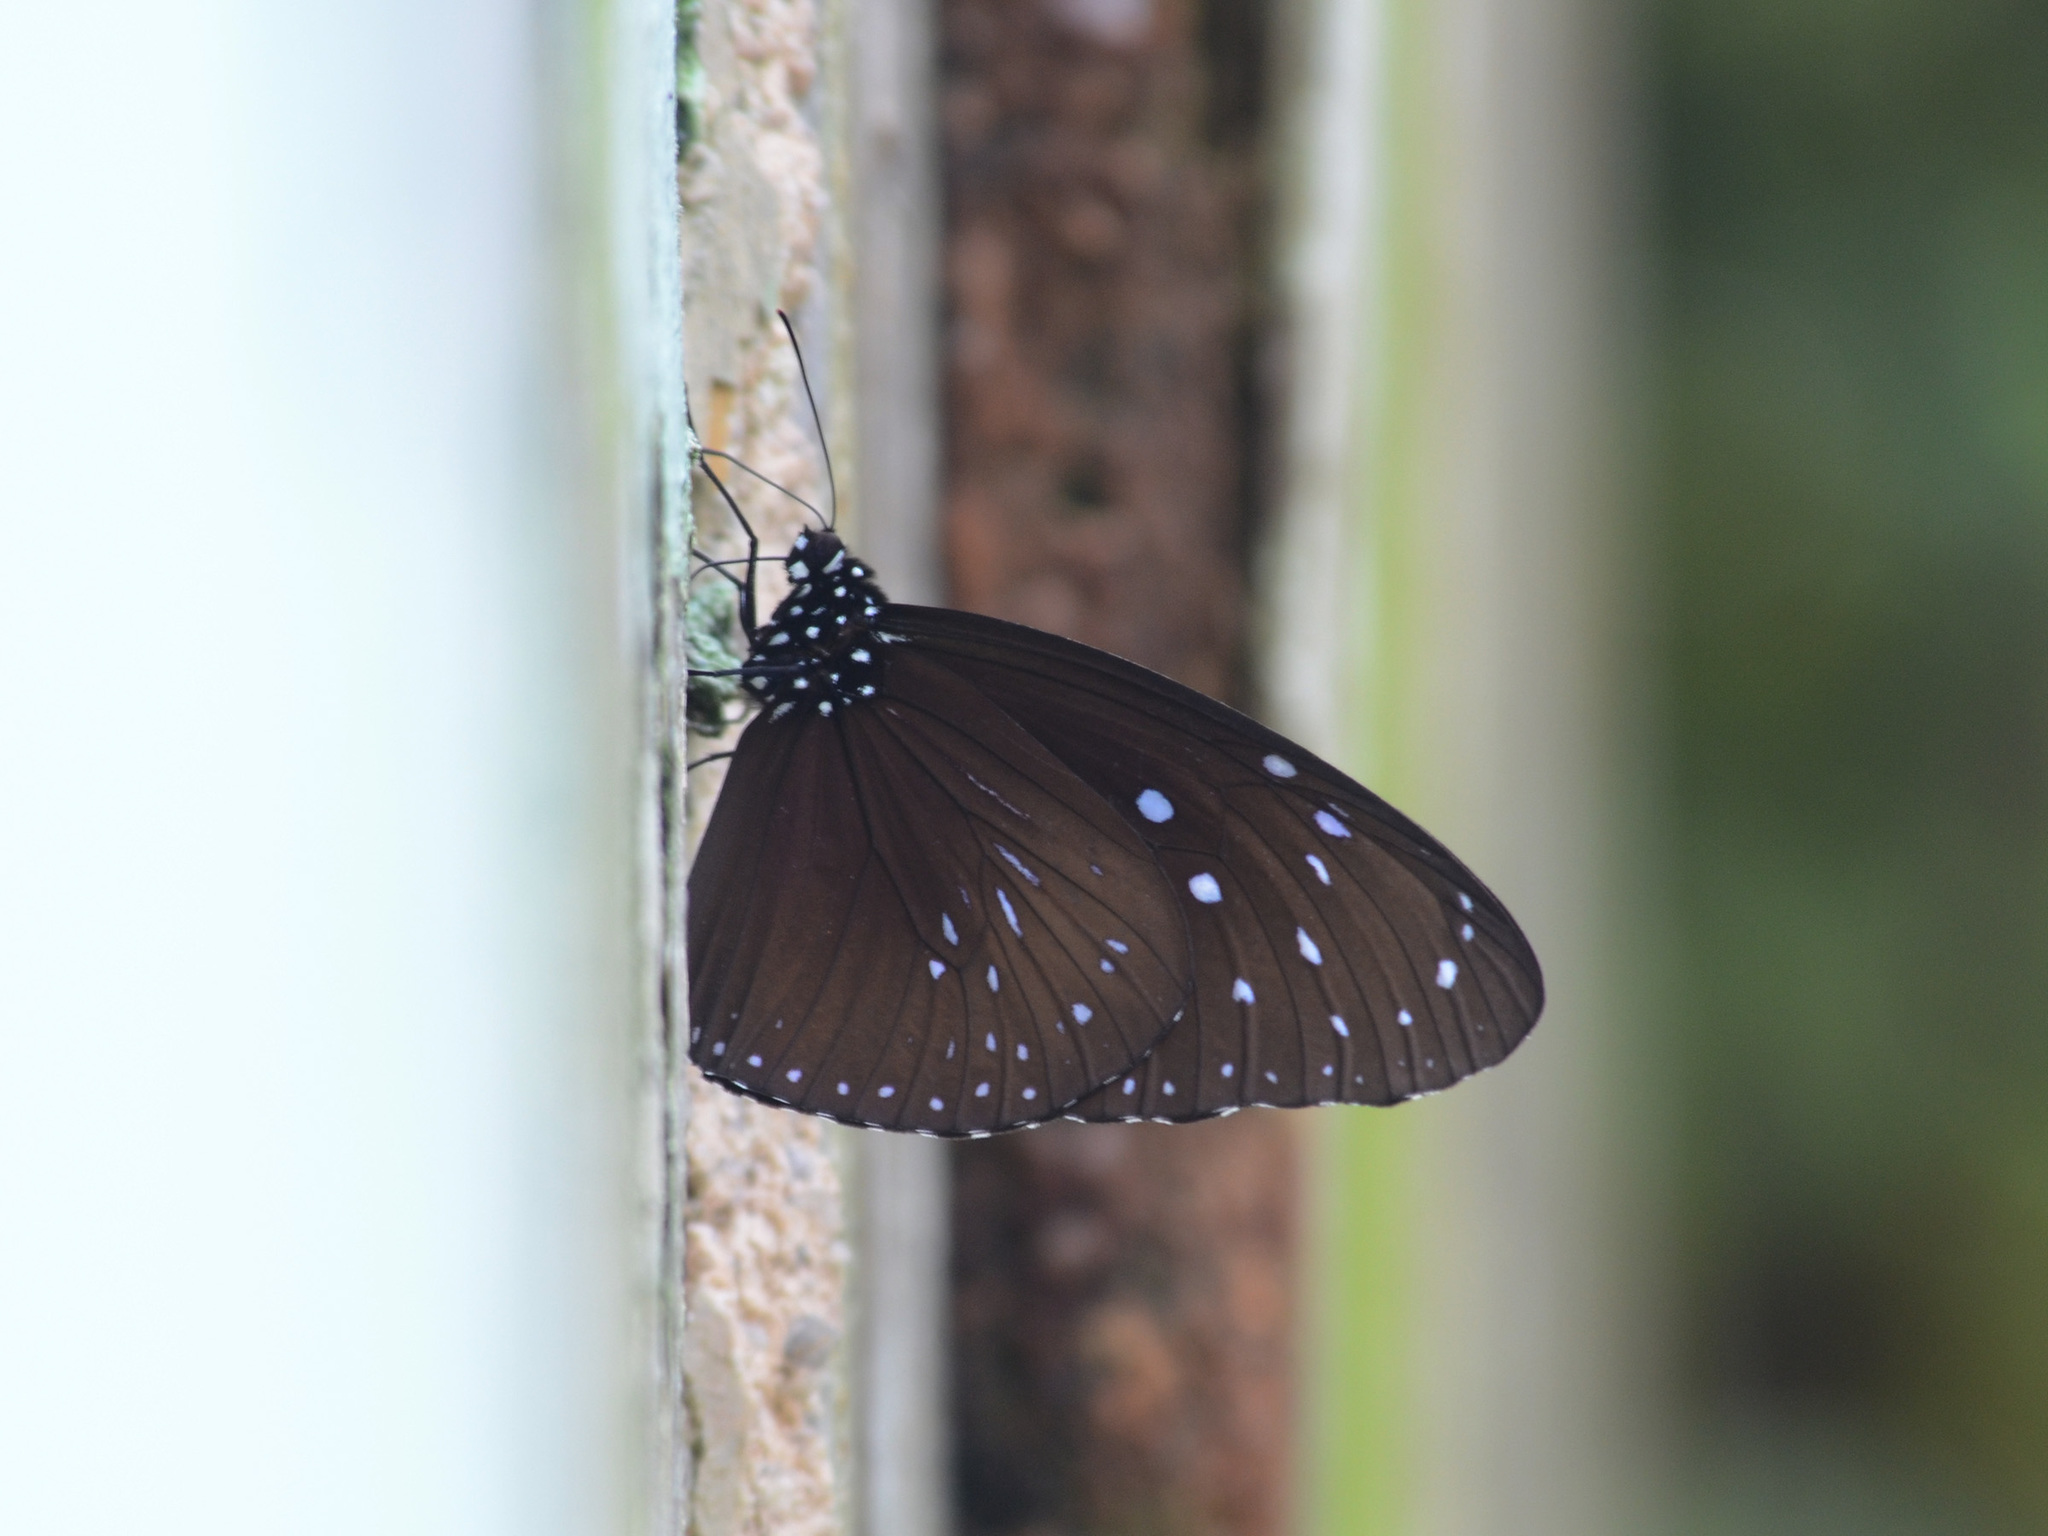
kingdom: Animalia
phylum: Arthropoda
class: Insecta
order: Lepidoptera
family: Nymphalidae
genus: Euploea
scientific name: Euploea mulciber
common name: Striped blue crow butterfly
